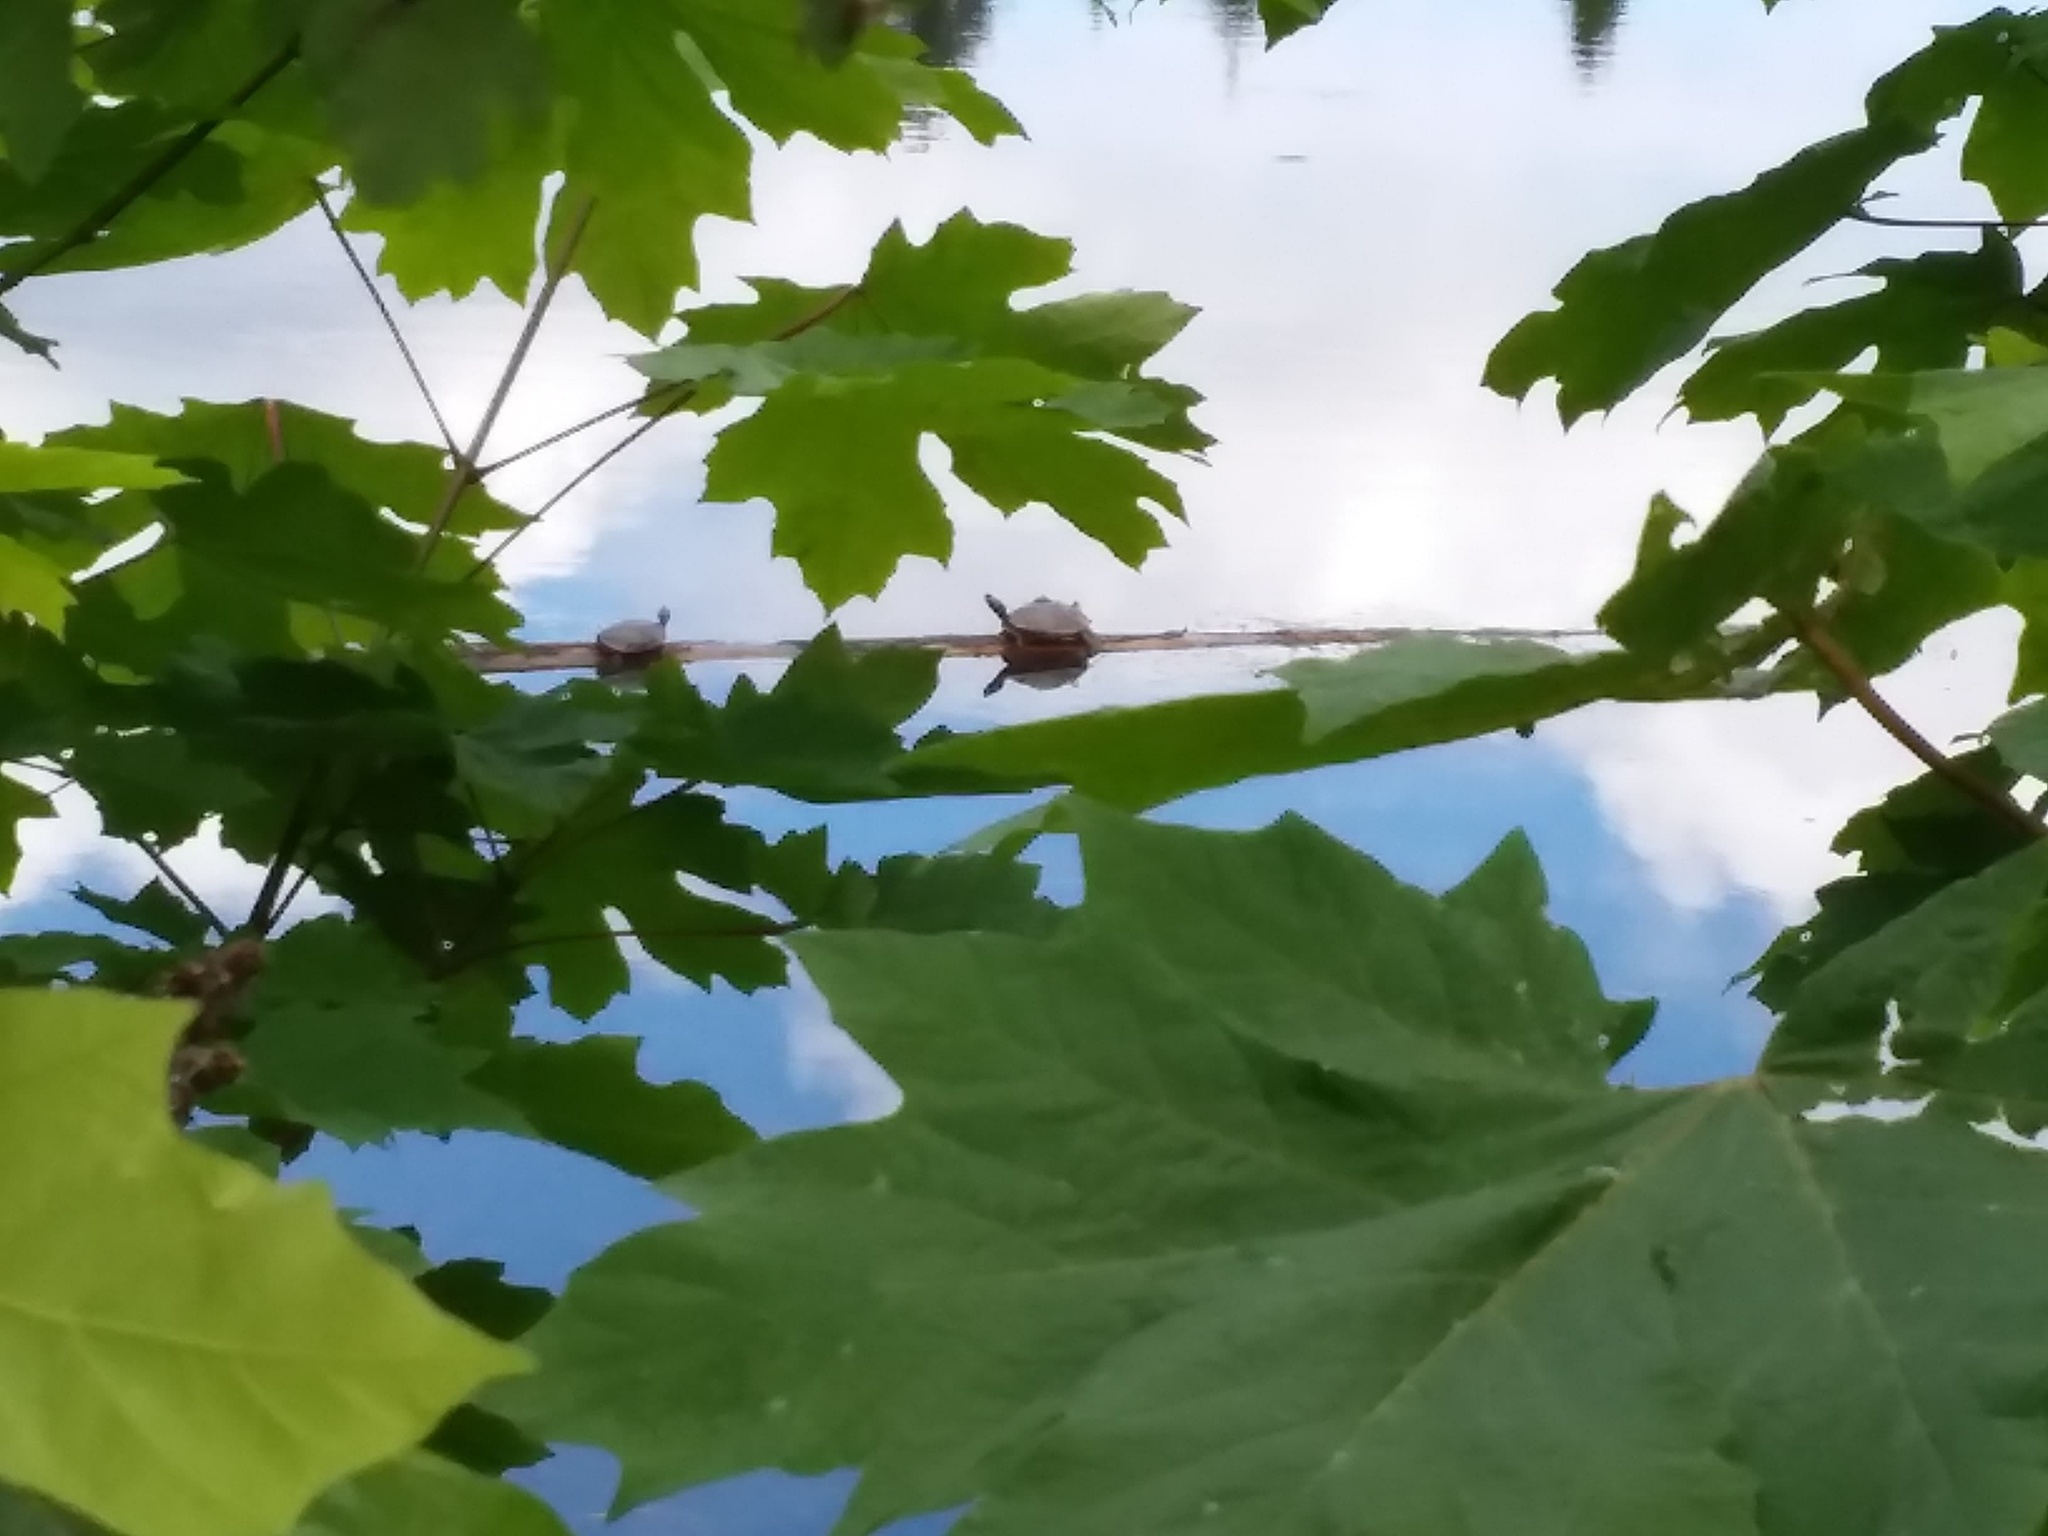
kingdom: Animalia
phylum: Chordata
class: Testudines
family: Emydidae
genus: Trachemys
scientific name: Trachemys scripta
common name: Slider
